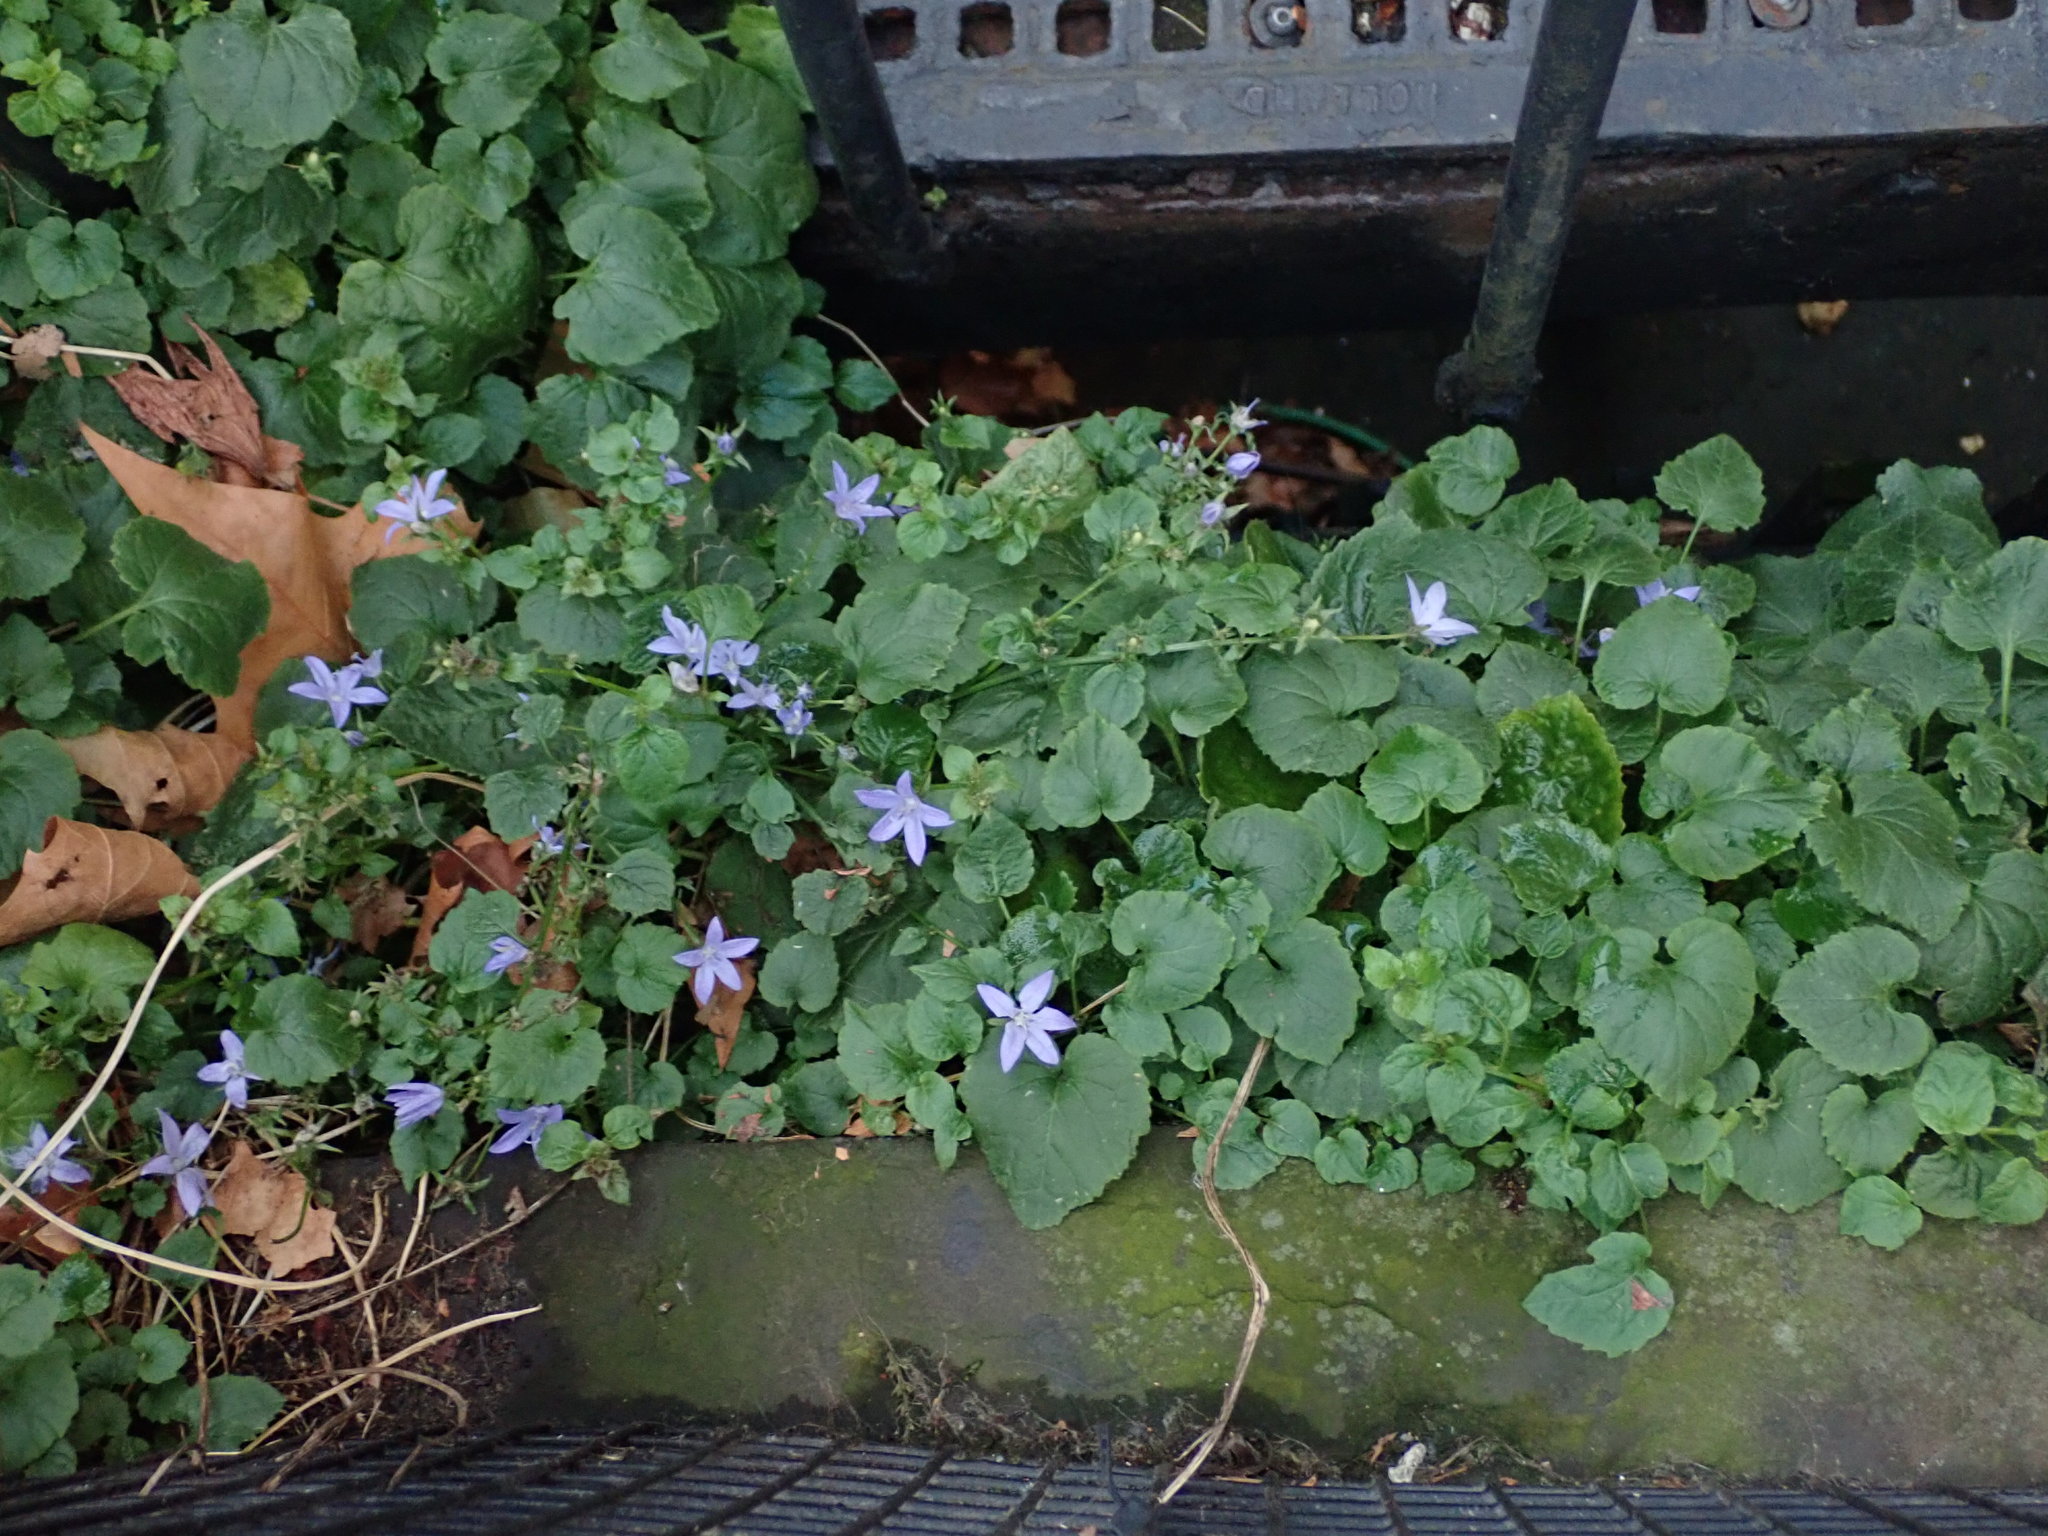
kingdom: Plantae
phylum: Tracheophyta
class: Magnoliopsida
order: Asterales
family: Campanulaceae
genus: Campanula
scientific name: Campanula poscharskyana
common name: Trailing bellflower
